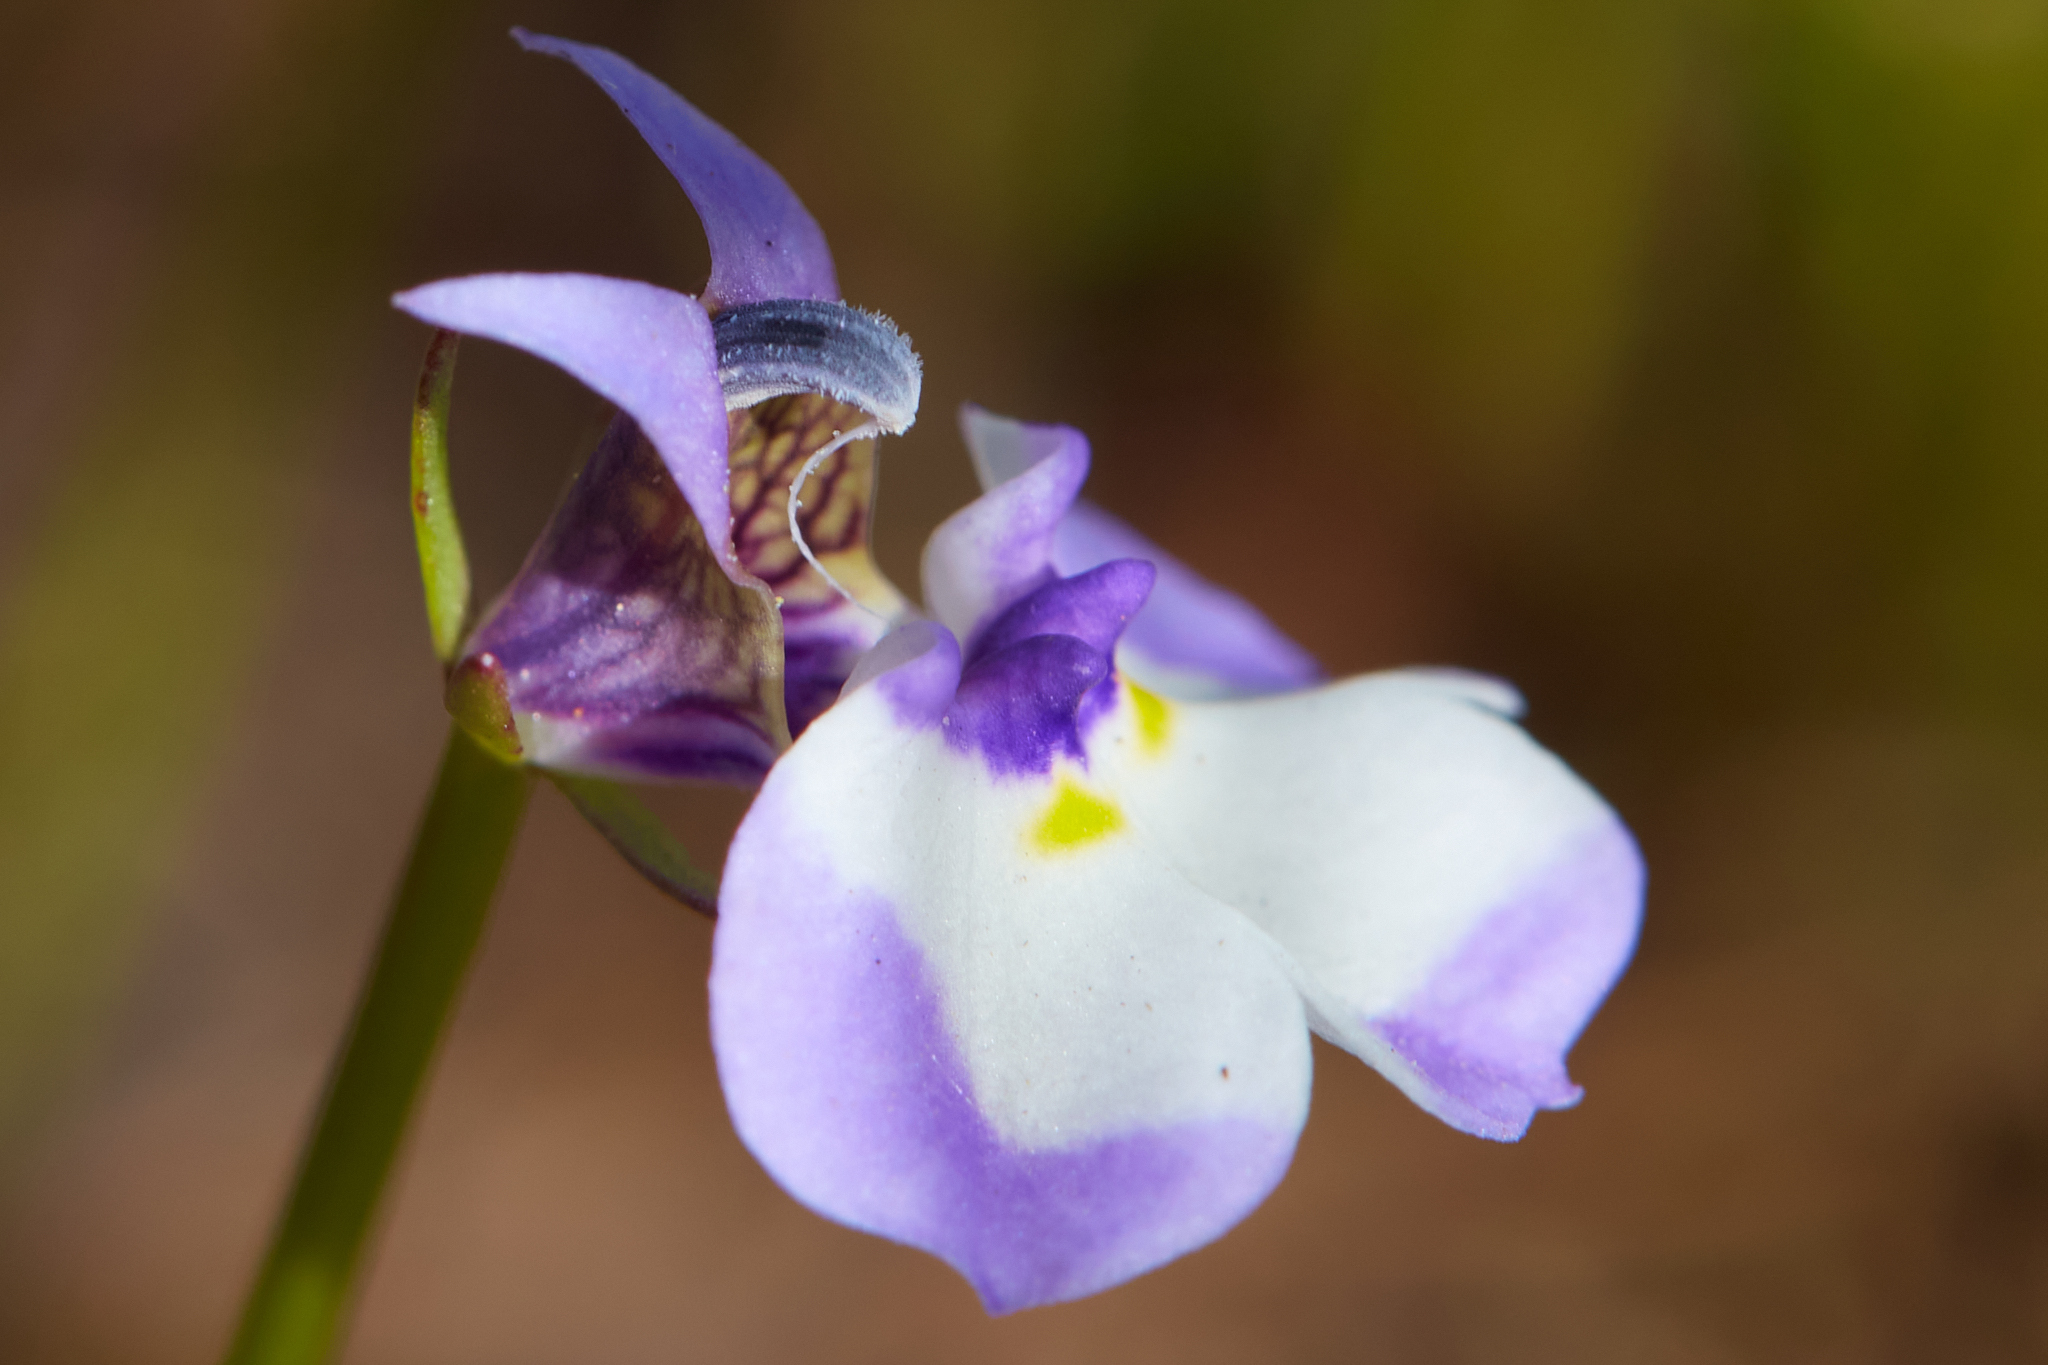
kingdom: Plantae
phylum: Tracheophyta
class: Magnoliopsida
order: Asterales
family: Campanulaceae
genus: Downingia
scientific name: Downingia bicornuta
